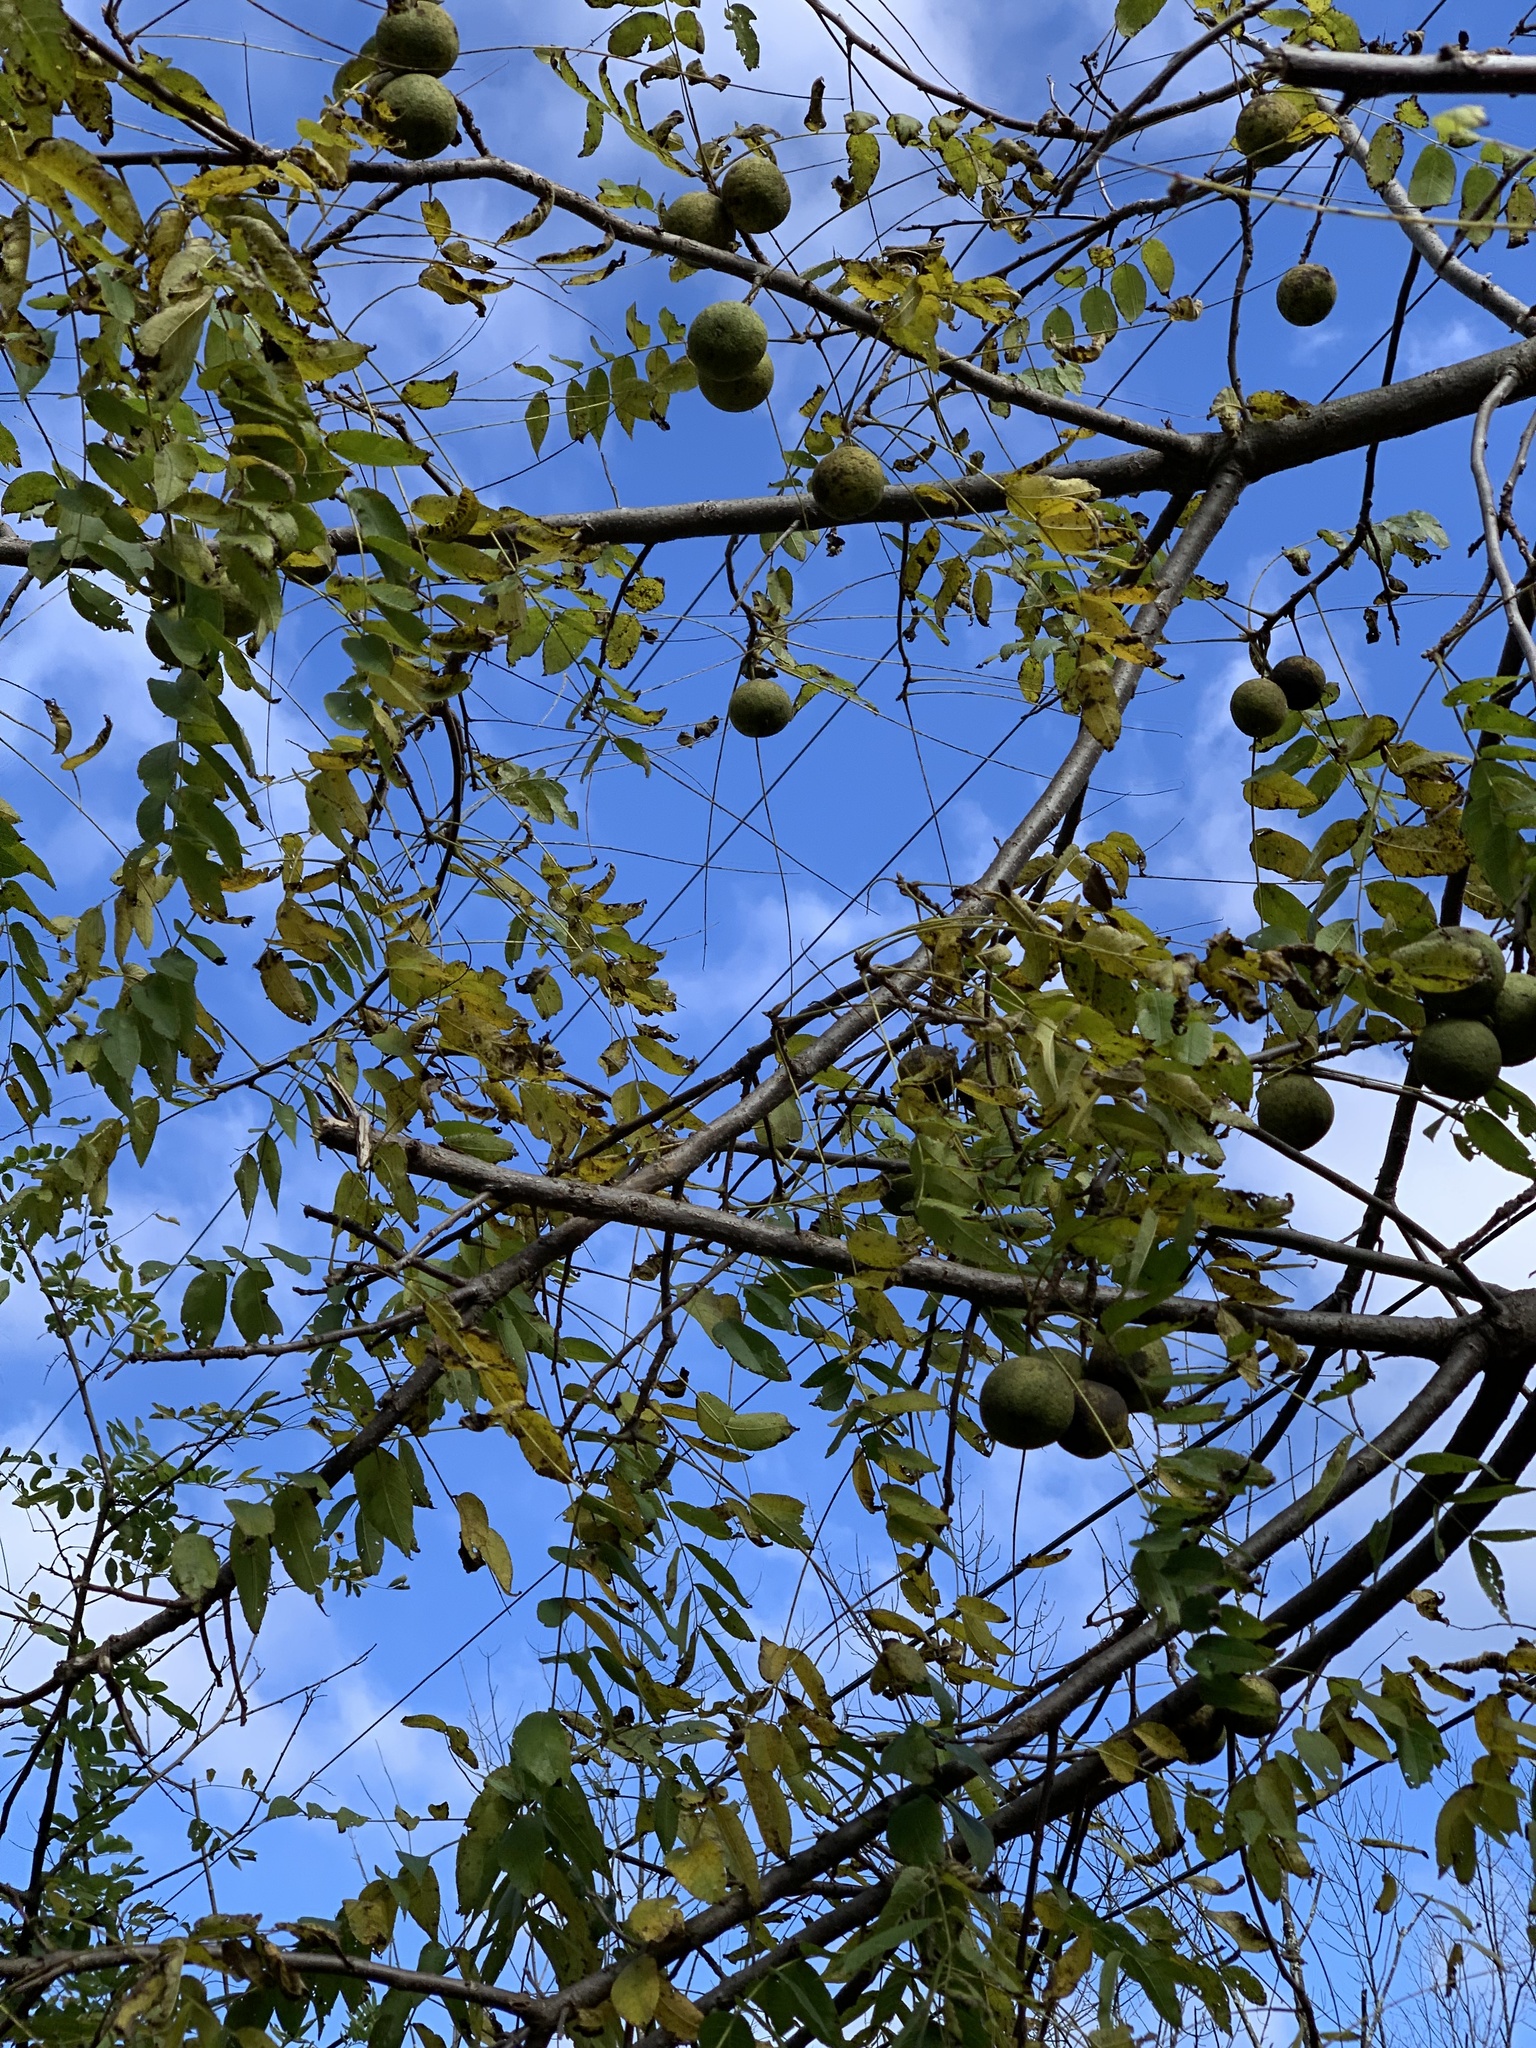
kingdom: Plantae
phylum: Tracheophyta
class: Magnoliopsida
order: Fagales
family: Juglandaceae
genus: Juglans
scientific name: Juglans nigra
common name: Black walnut
